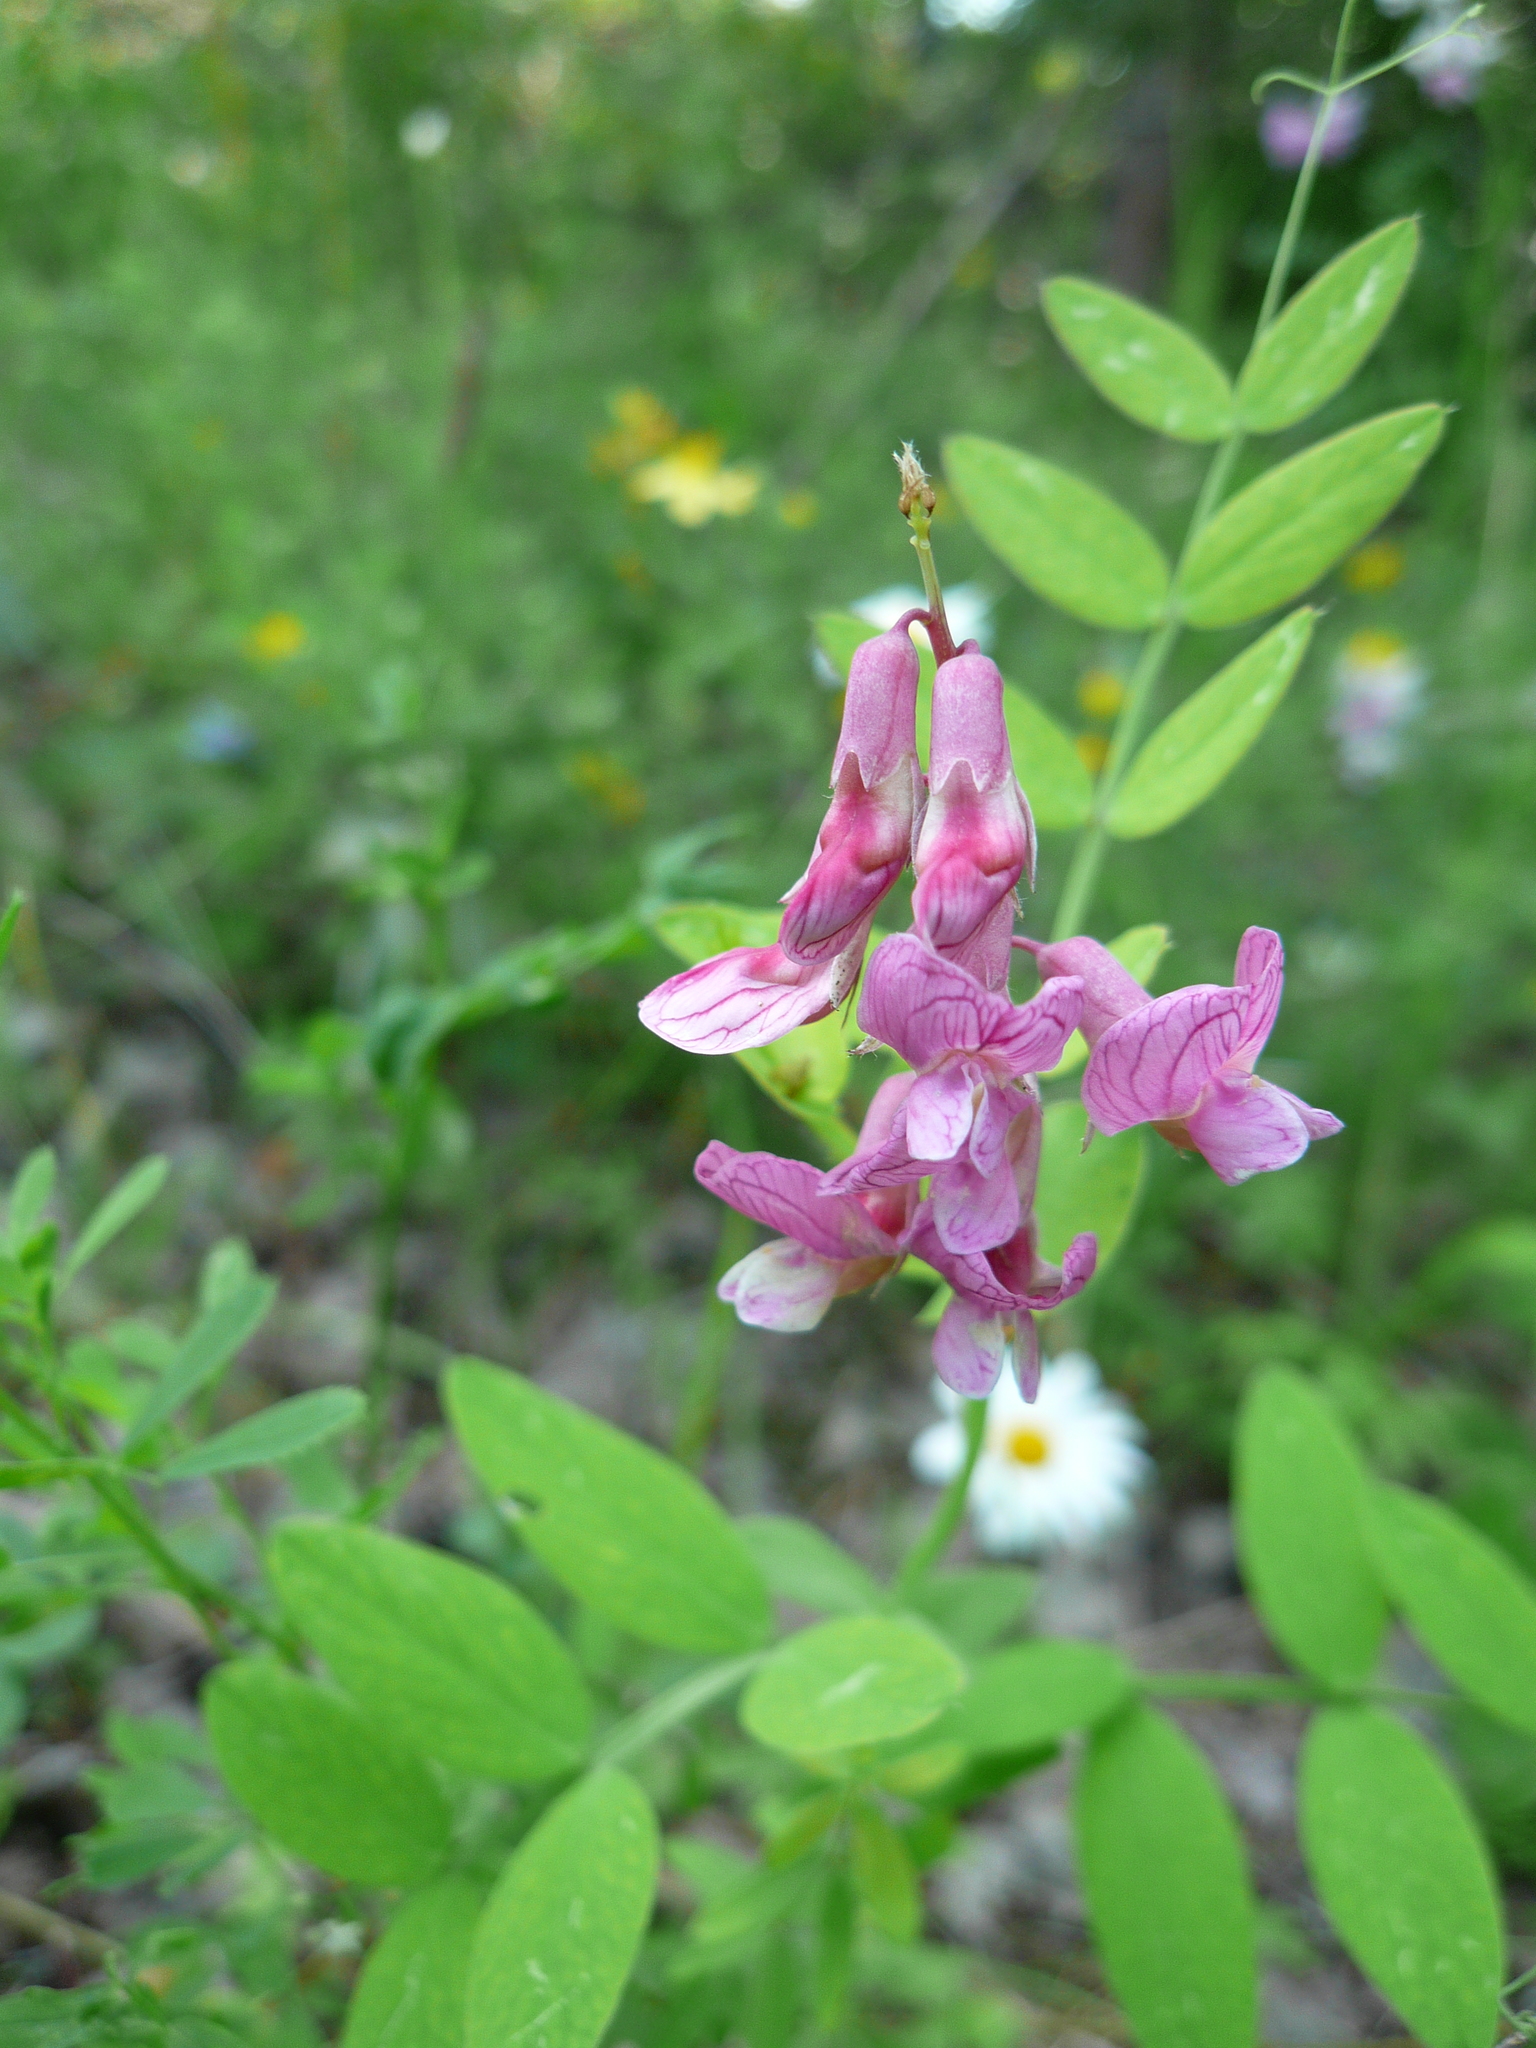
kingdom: Plantae
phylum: Tracheophyta
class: Magnoliopsida
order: Fabales
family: Fabaceae
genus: Lathyrus
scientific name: Lathyrus pisiformis
